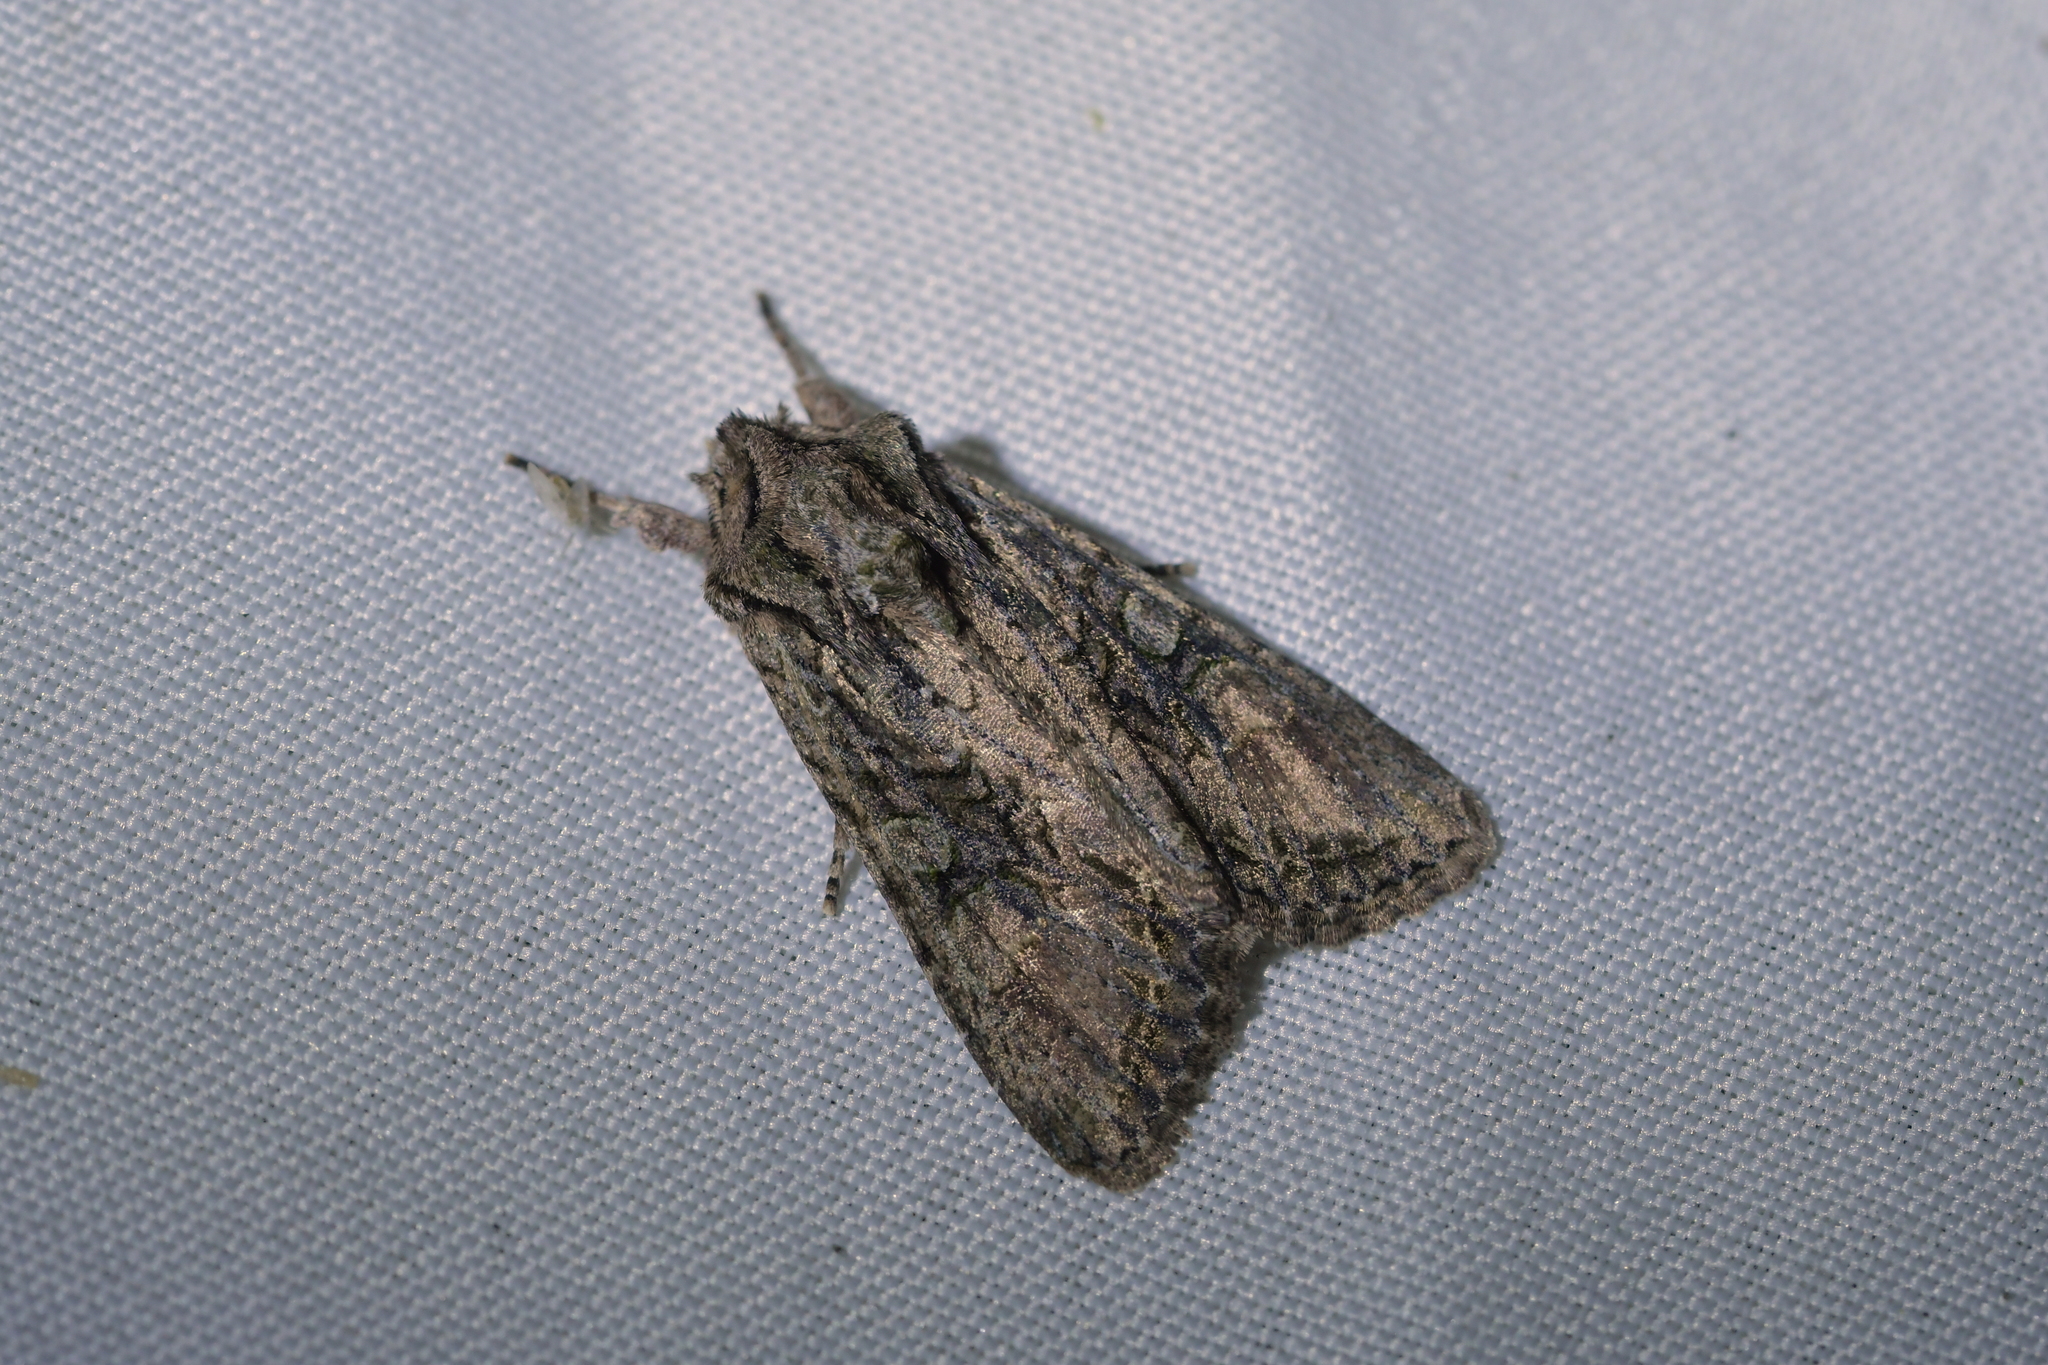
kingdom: Animalia
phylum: Arthropoda
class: Insecta
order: Lepidoptera
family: Noctuidae
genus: Ichneutica
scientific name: Ichneutica mutans
